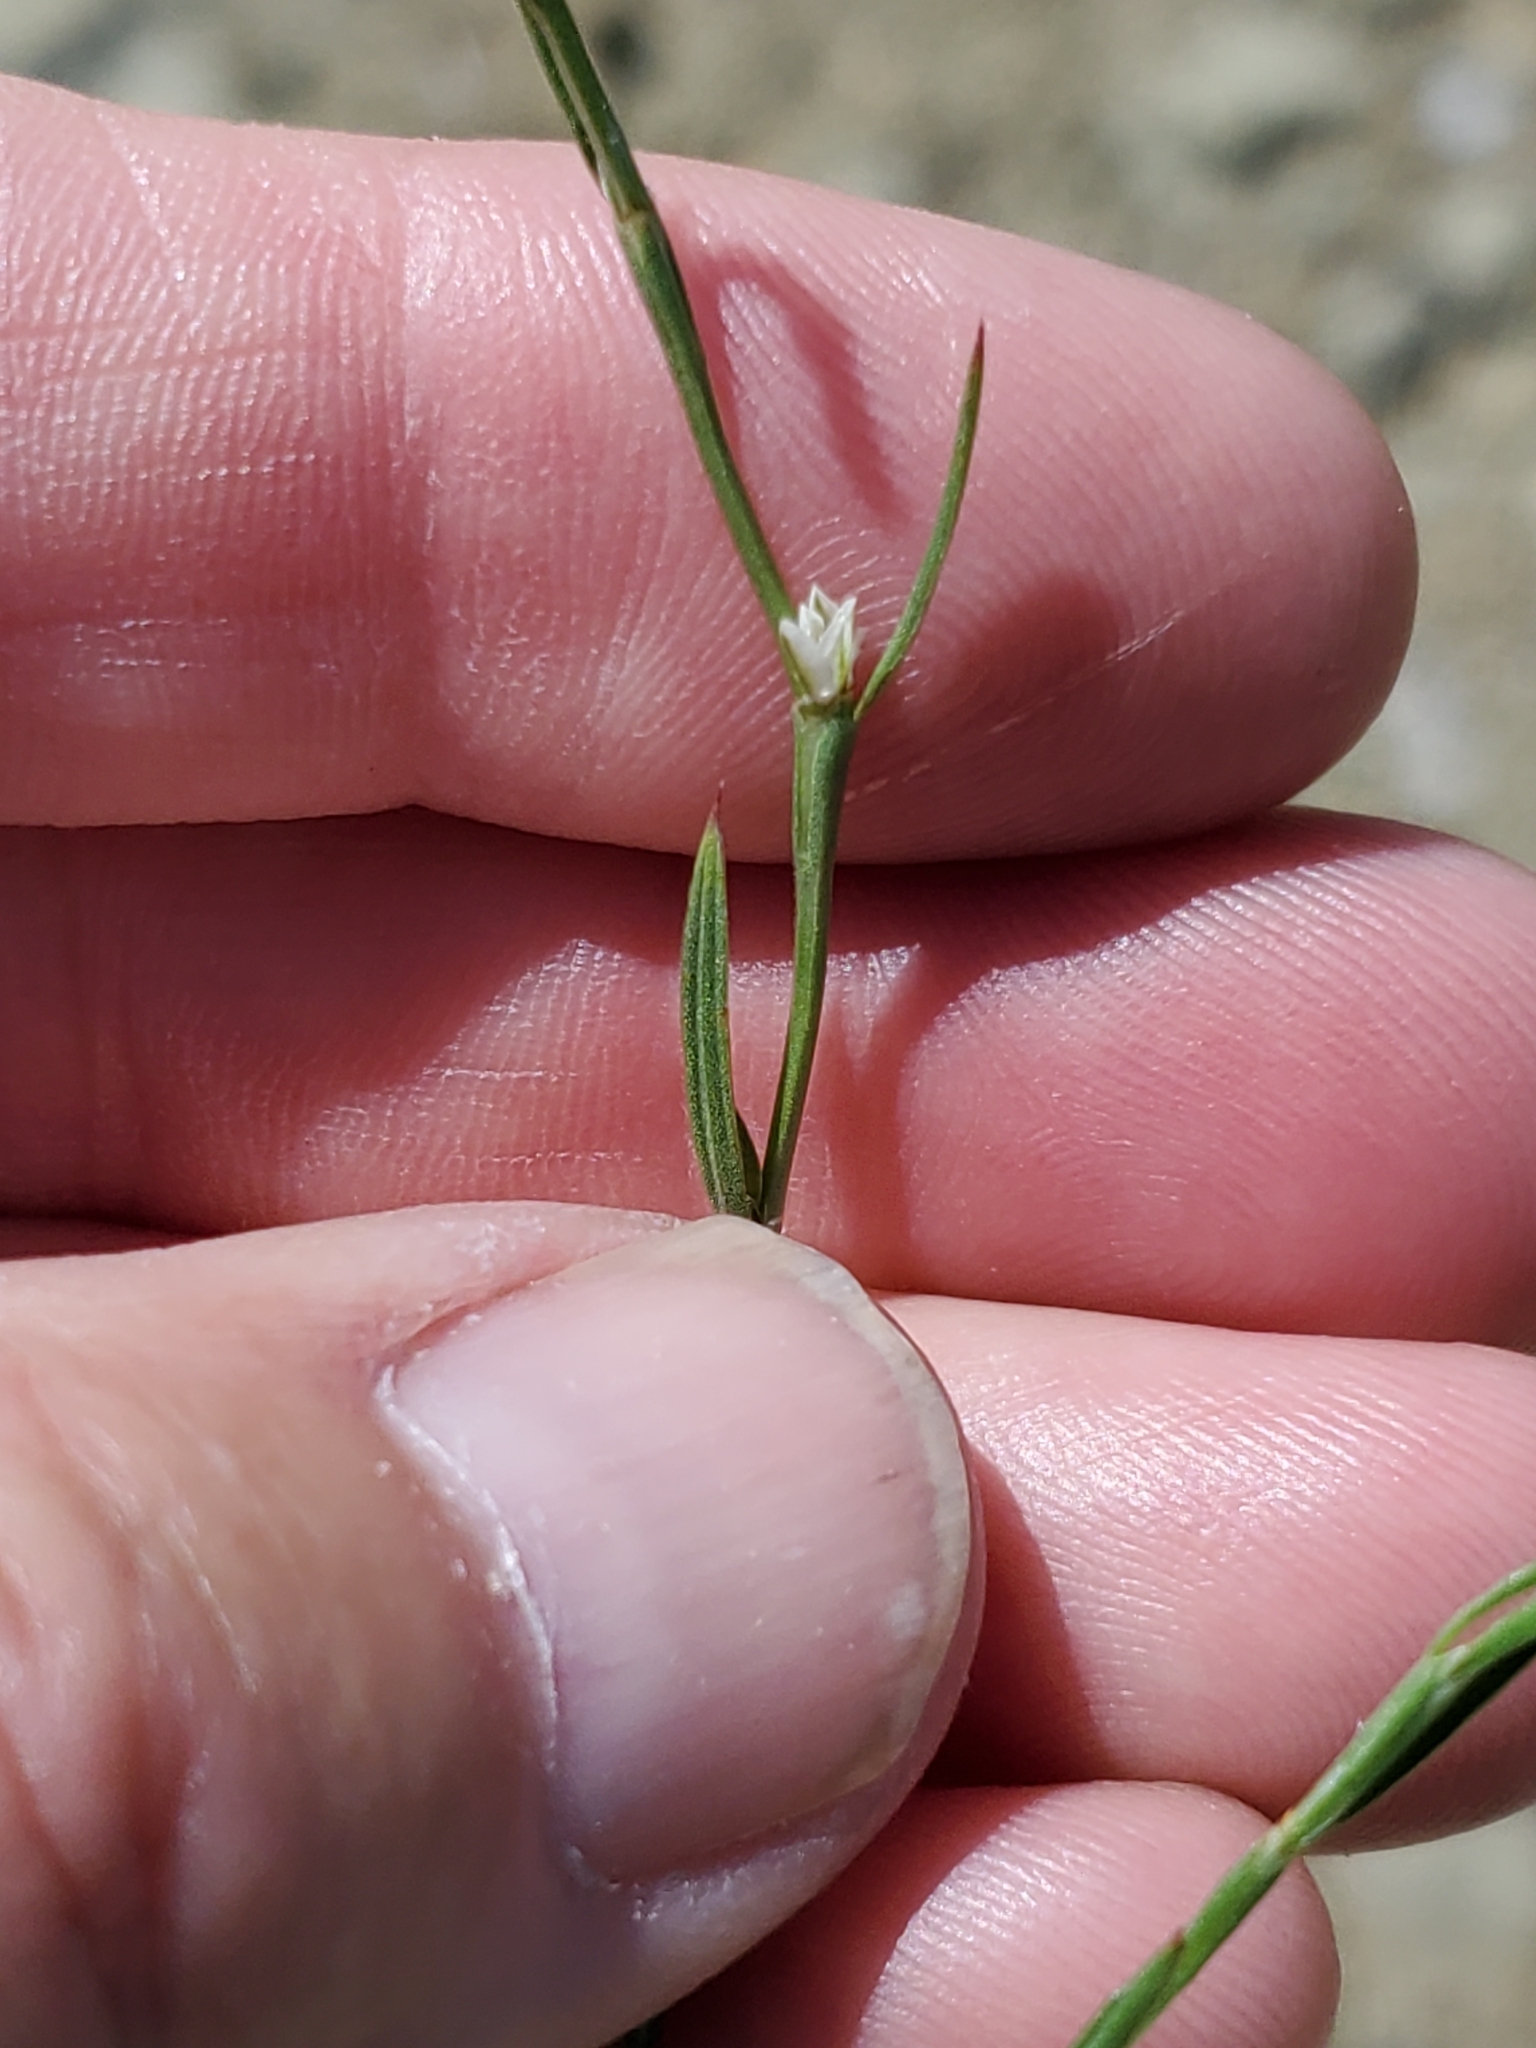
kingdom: Plantae
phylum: Tracheophyta
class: Magnoliopsida
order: Caryophyllales
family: Polygonaceae
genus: Polygonum
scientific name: Polygonum tenue
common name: Pleat-leaved knotweed
